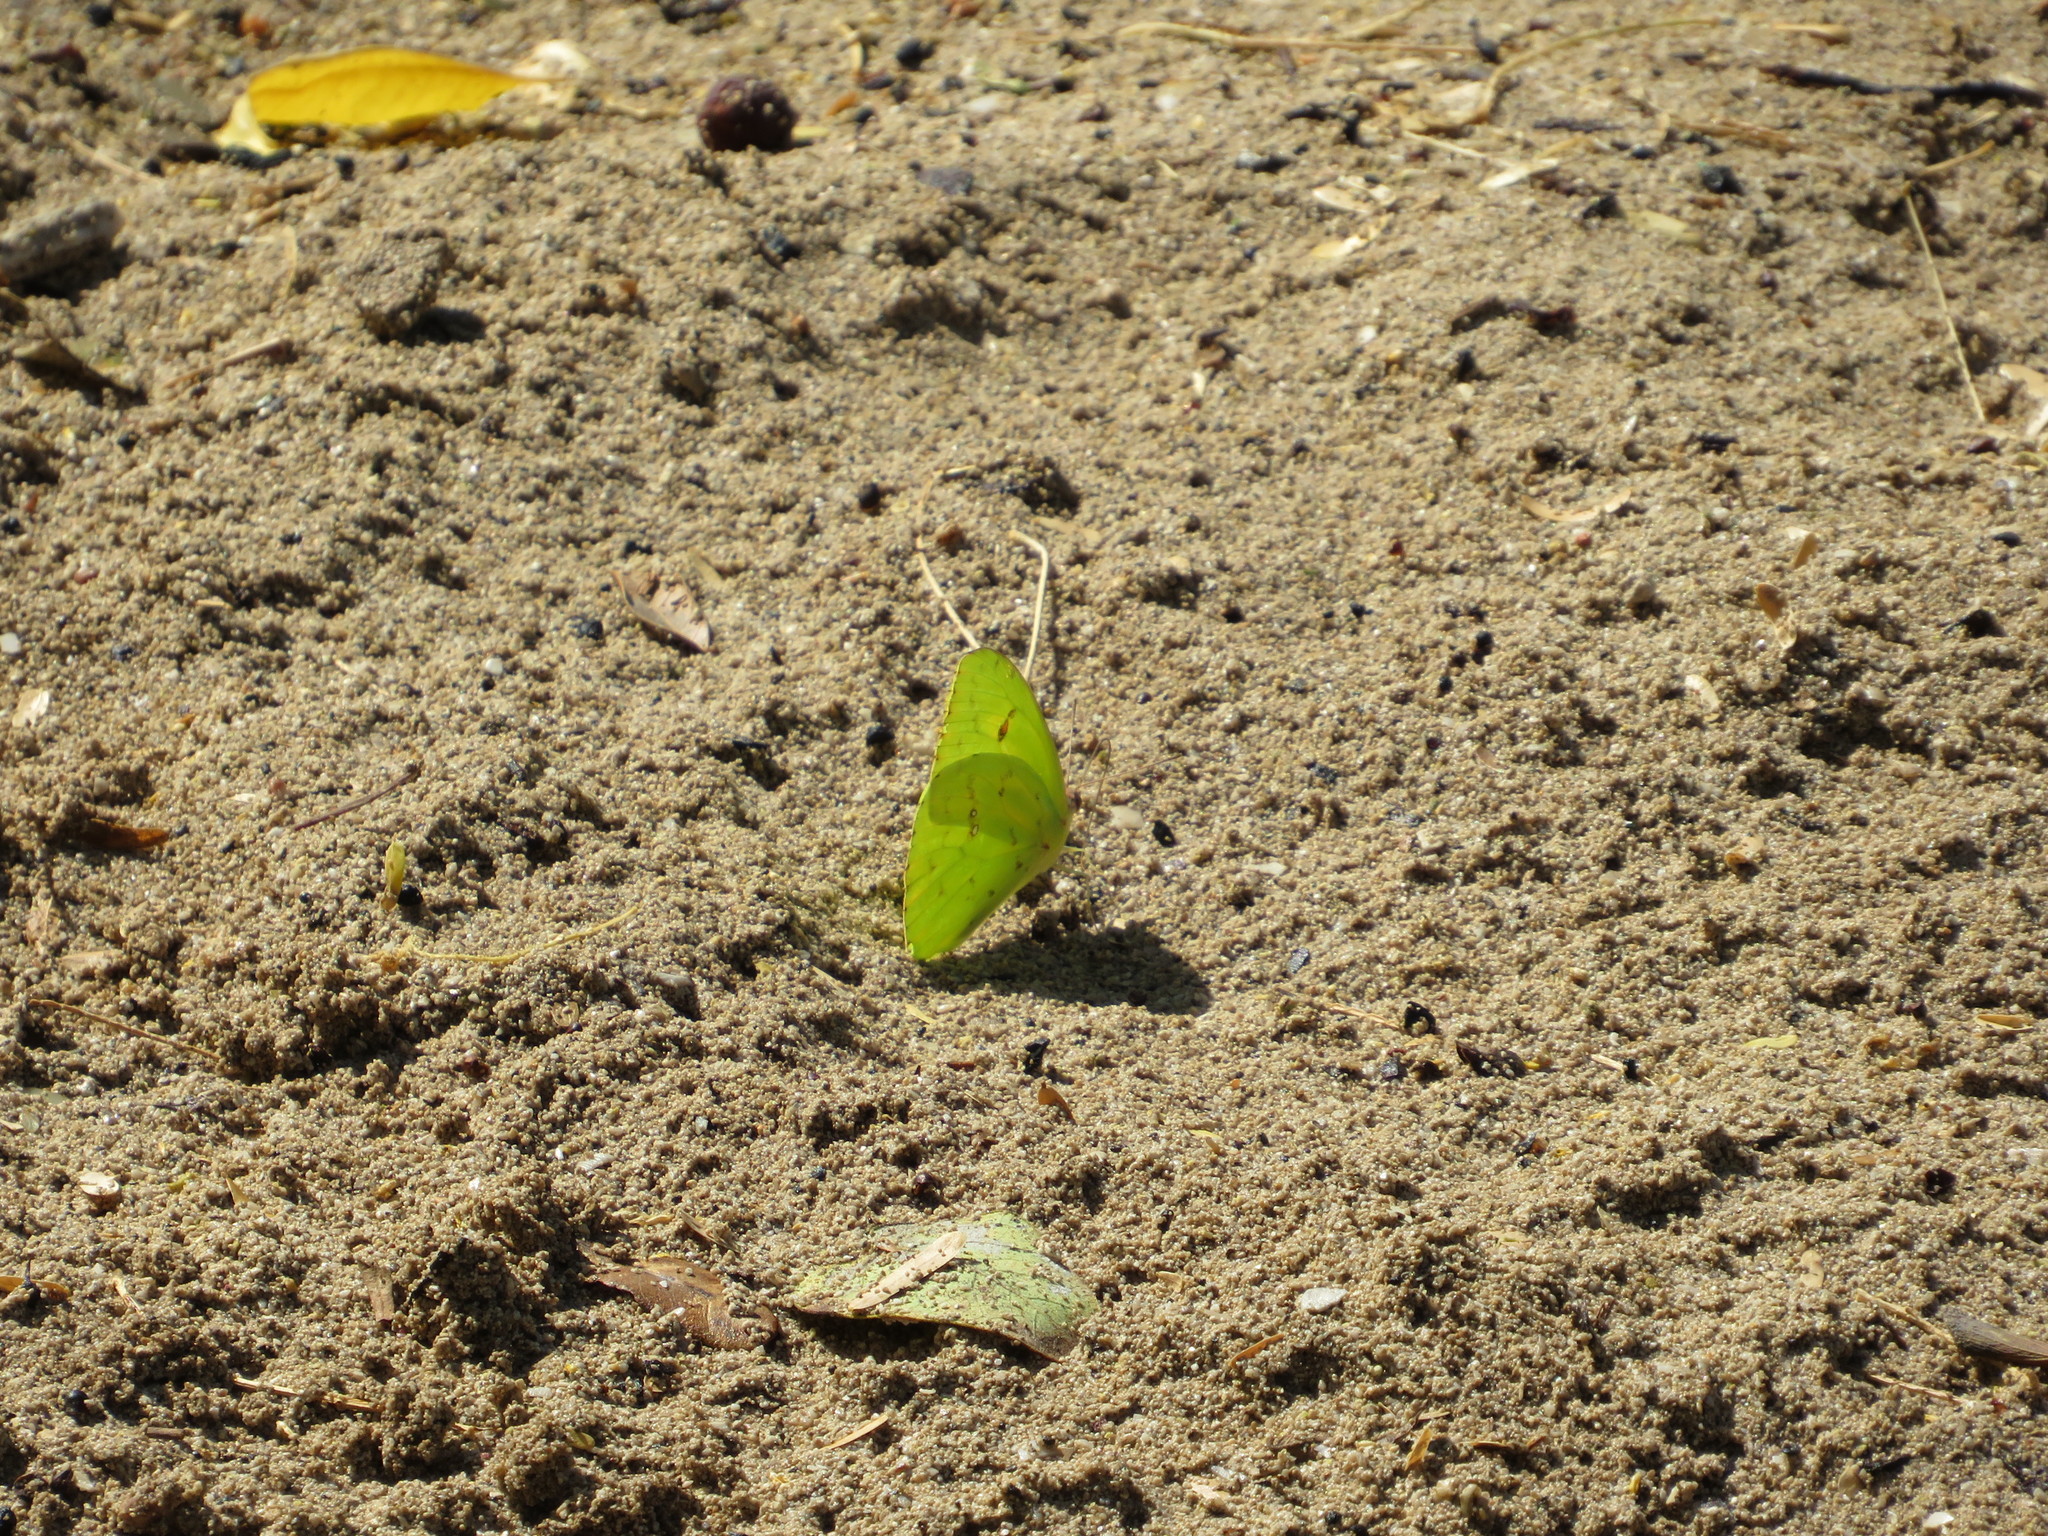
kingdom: Animalia
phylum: Arthropoda
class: Insecta
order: Lepidoptera
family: Pieridae
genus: Phoebis
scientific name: Phoebis sennae
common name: Cloudless sulphur
